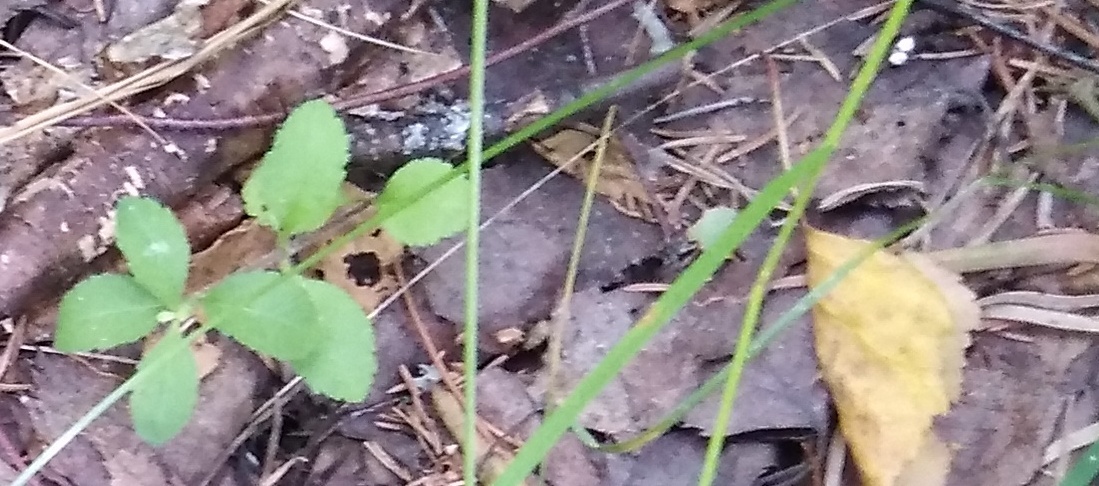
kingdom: Plantae
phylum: Tracheophyta
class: Magnoliopsida
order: Lamiales
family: Plantaginaceae
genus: Veronica
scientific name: Veronica officinalis
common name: Common speedwell
